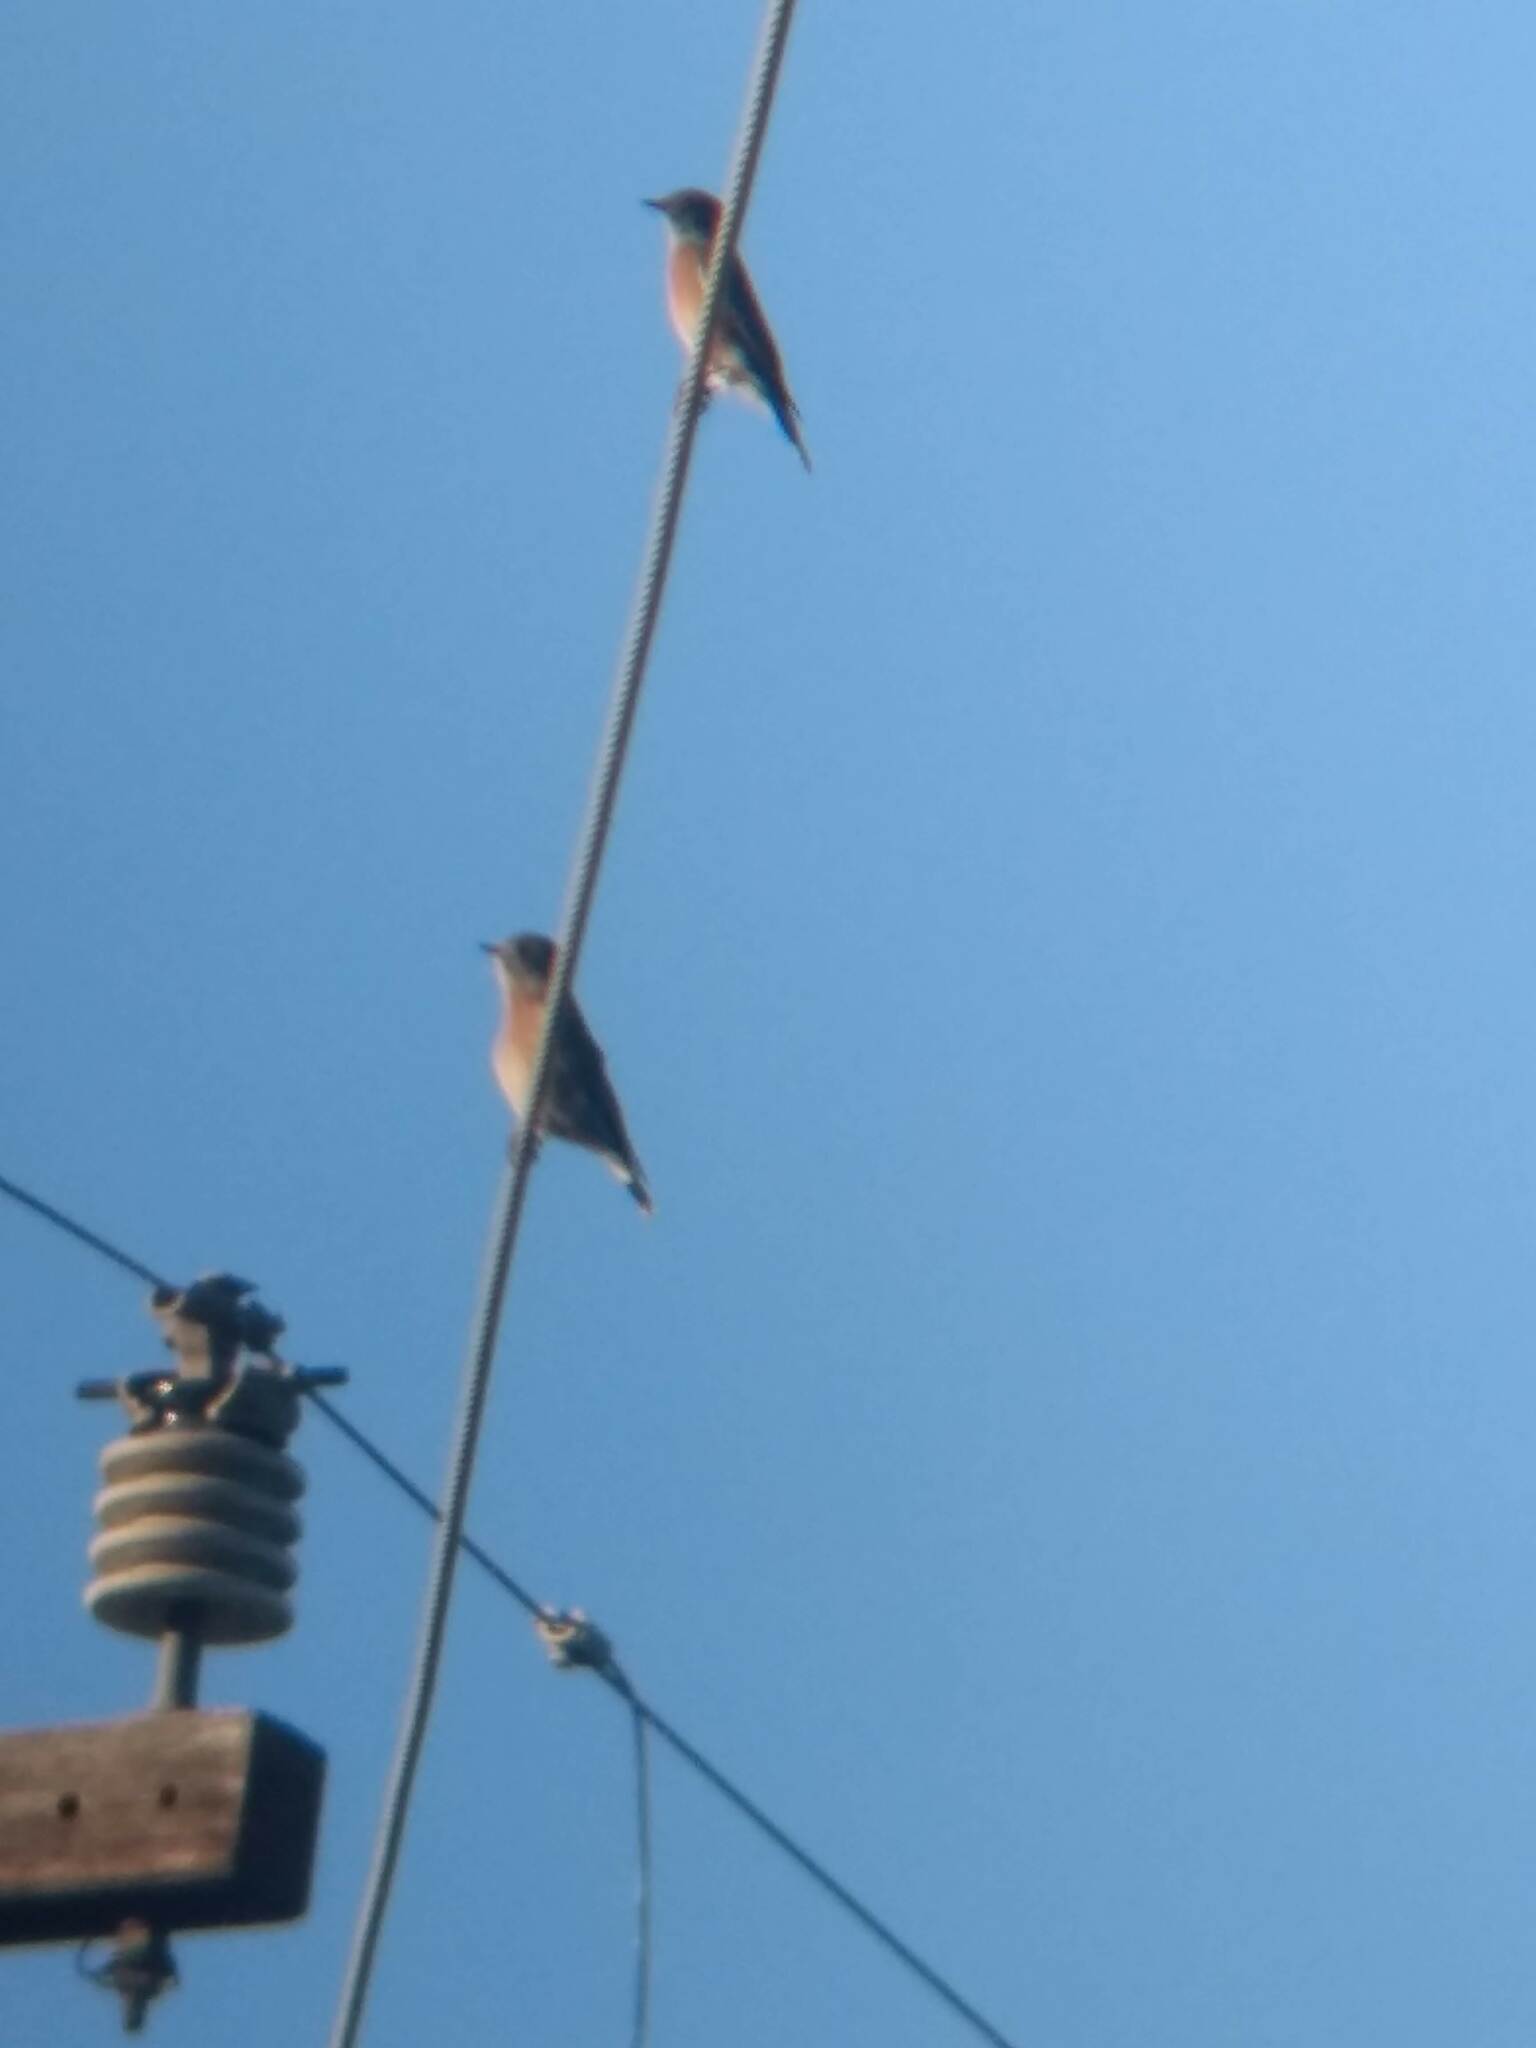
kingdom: Animalia
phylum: Chordata
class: Aves
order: Passeriformes
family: Turdidae
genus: Sialia
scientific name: Sialia mexicana
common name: Western bluebird
